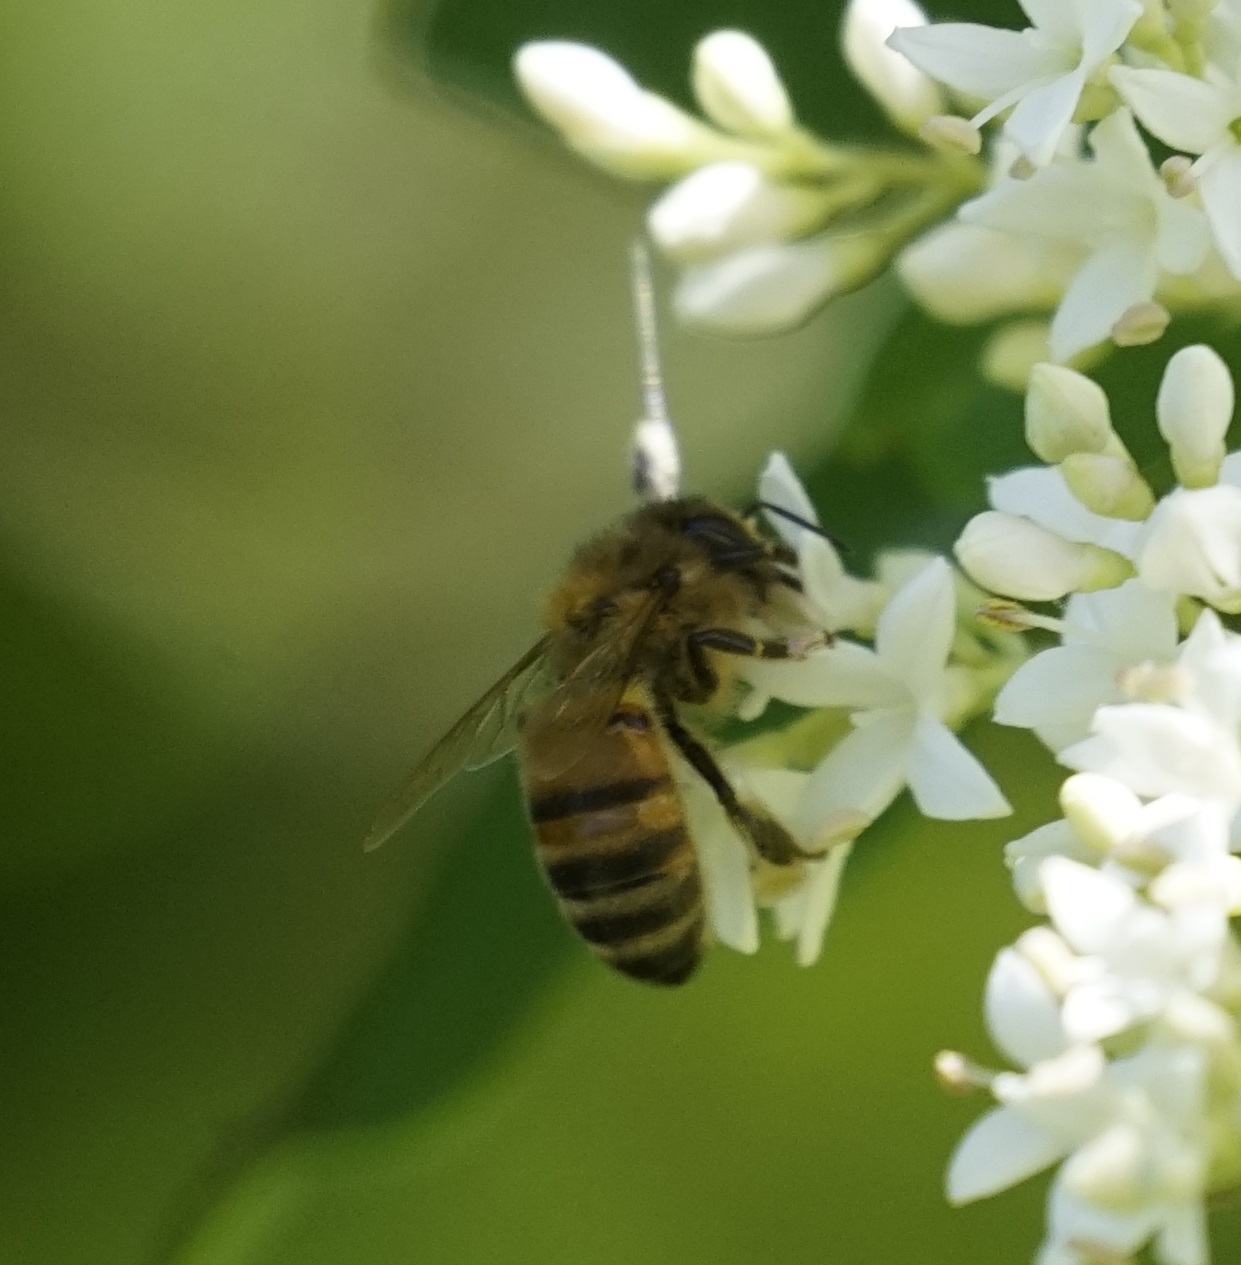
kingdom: Animalia
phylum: Arthropoda
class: Insecta
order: Hymenoptera
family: Apidae
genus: Apis
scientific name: Apis mellifera
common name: Honey bee
